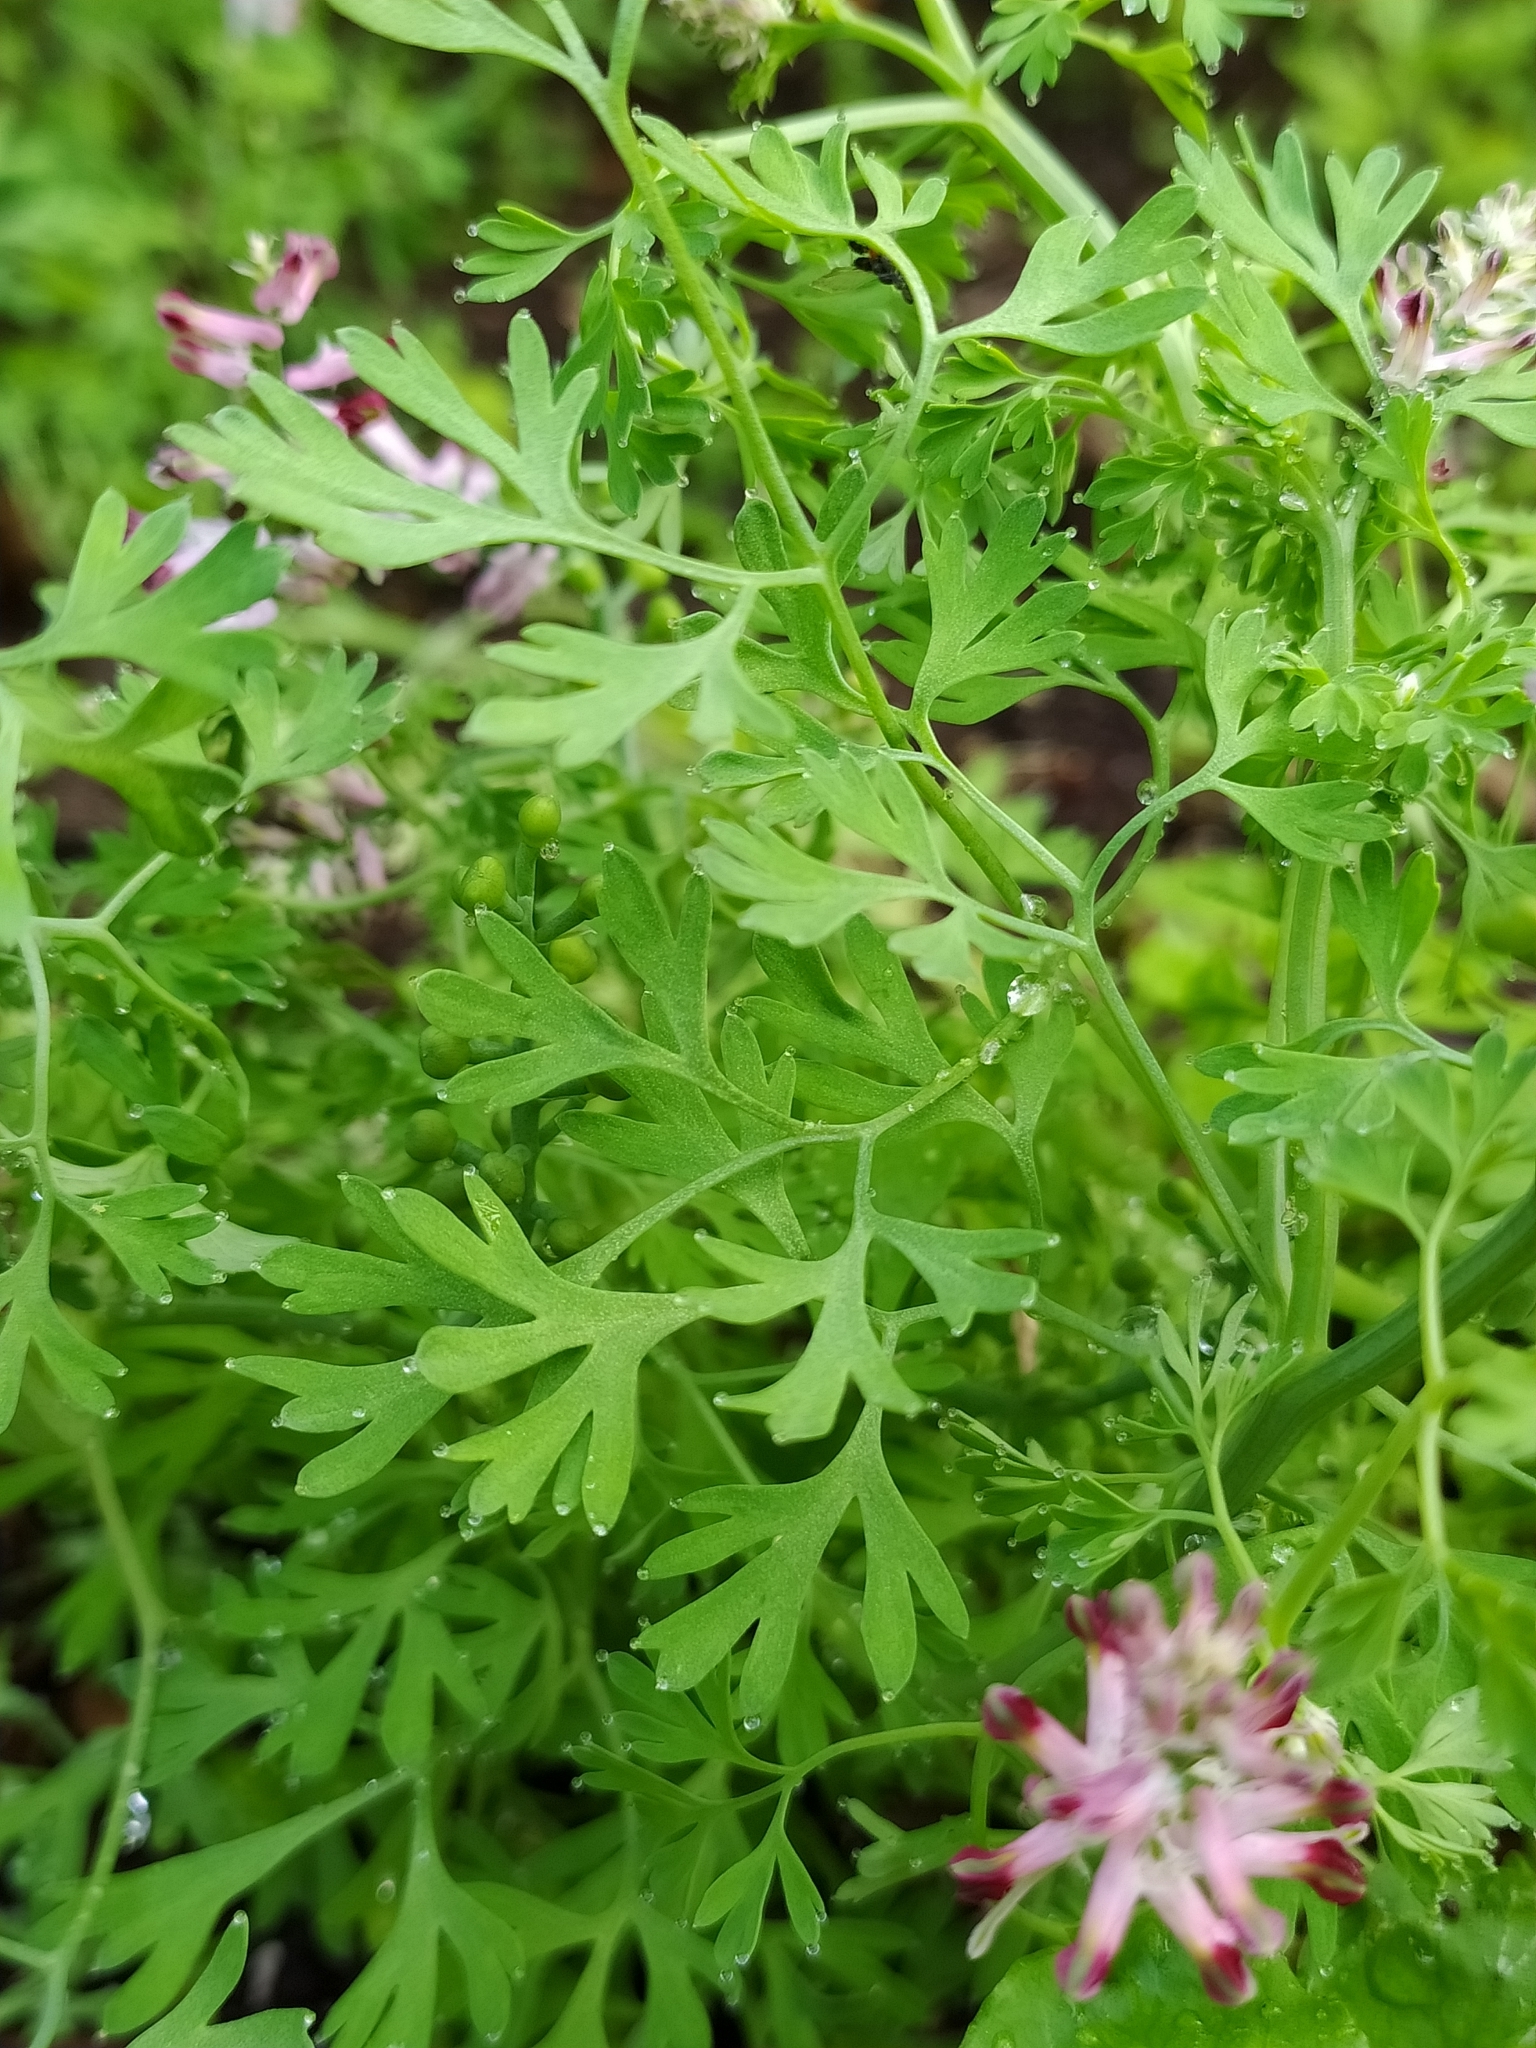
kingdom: Plantae
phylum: Tracheophyta
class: Magnoliopsida
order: Ranunculales
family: Papaveraceae
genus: Fumaria
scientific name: Fumaria officinalis
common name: Common fumitory
